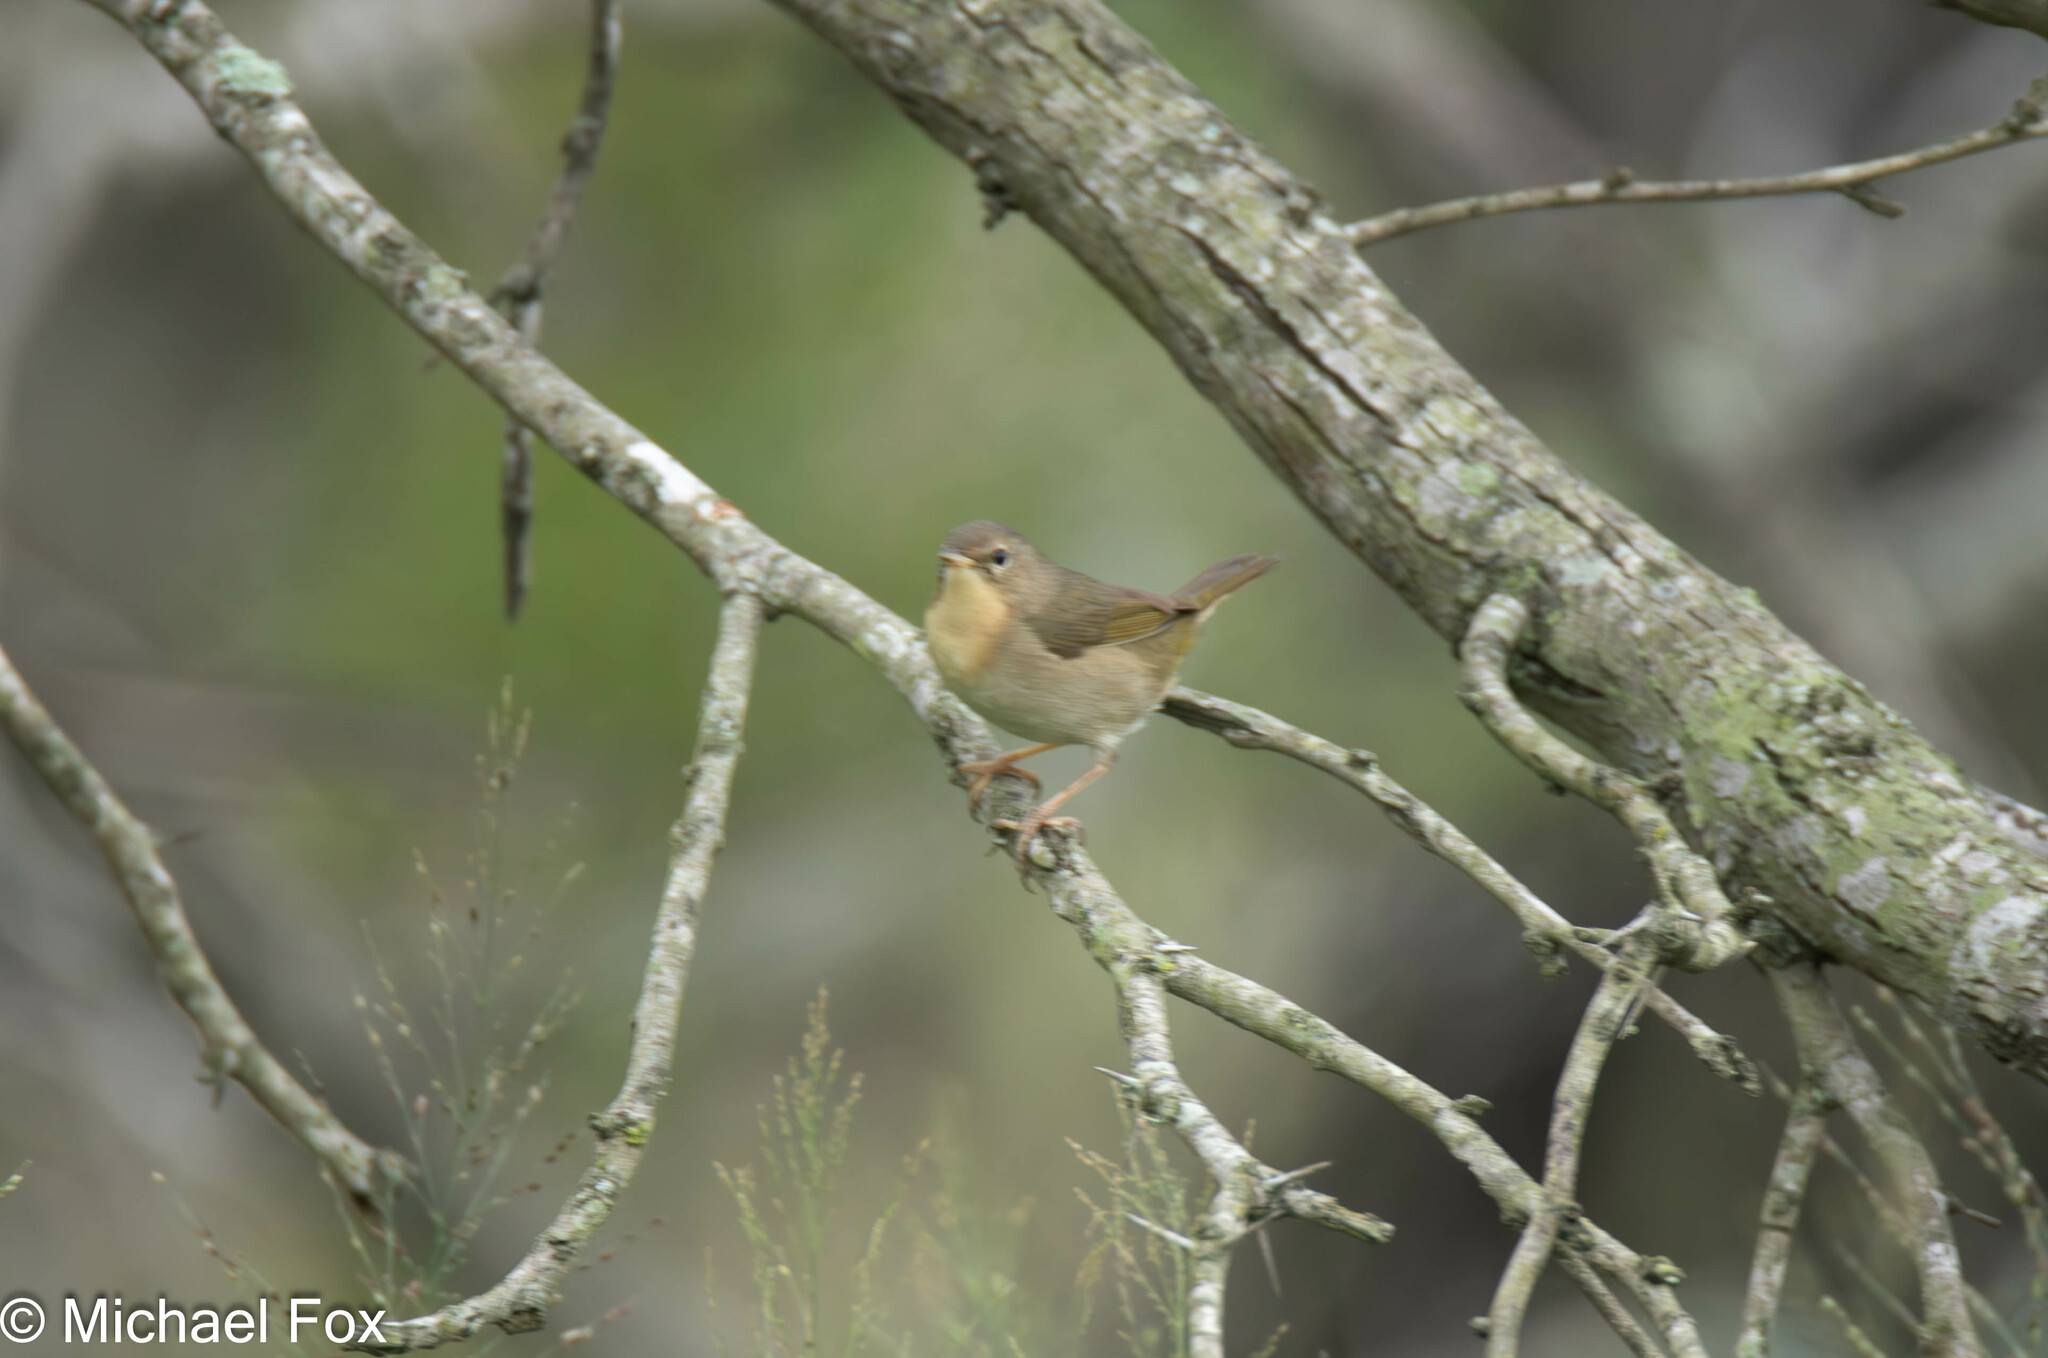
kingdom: Animalia
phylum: Chordata
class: Aves
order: Passeriformes
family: Parulidae
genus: Geothlypis
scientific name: Geothlypis trichas
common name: Common yellowthroat
